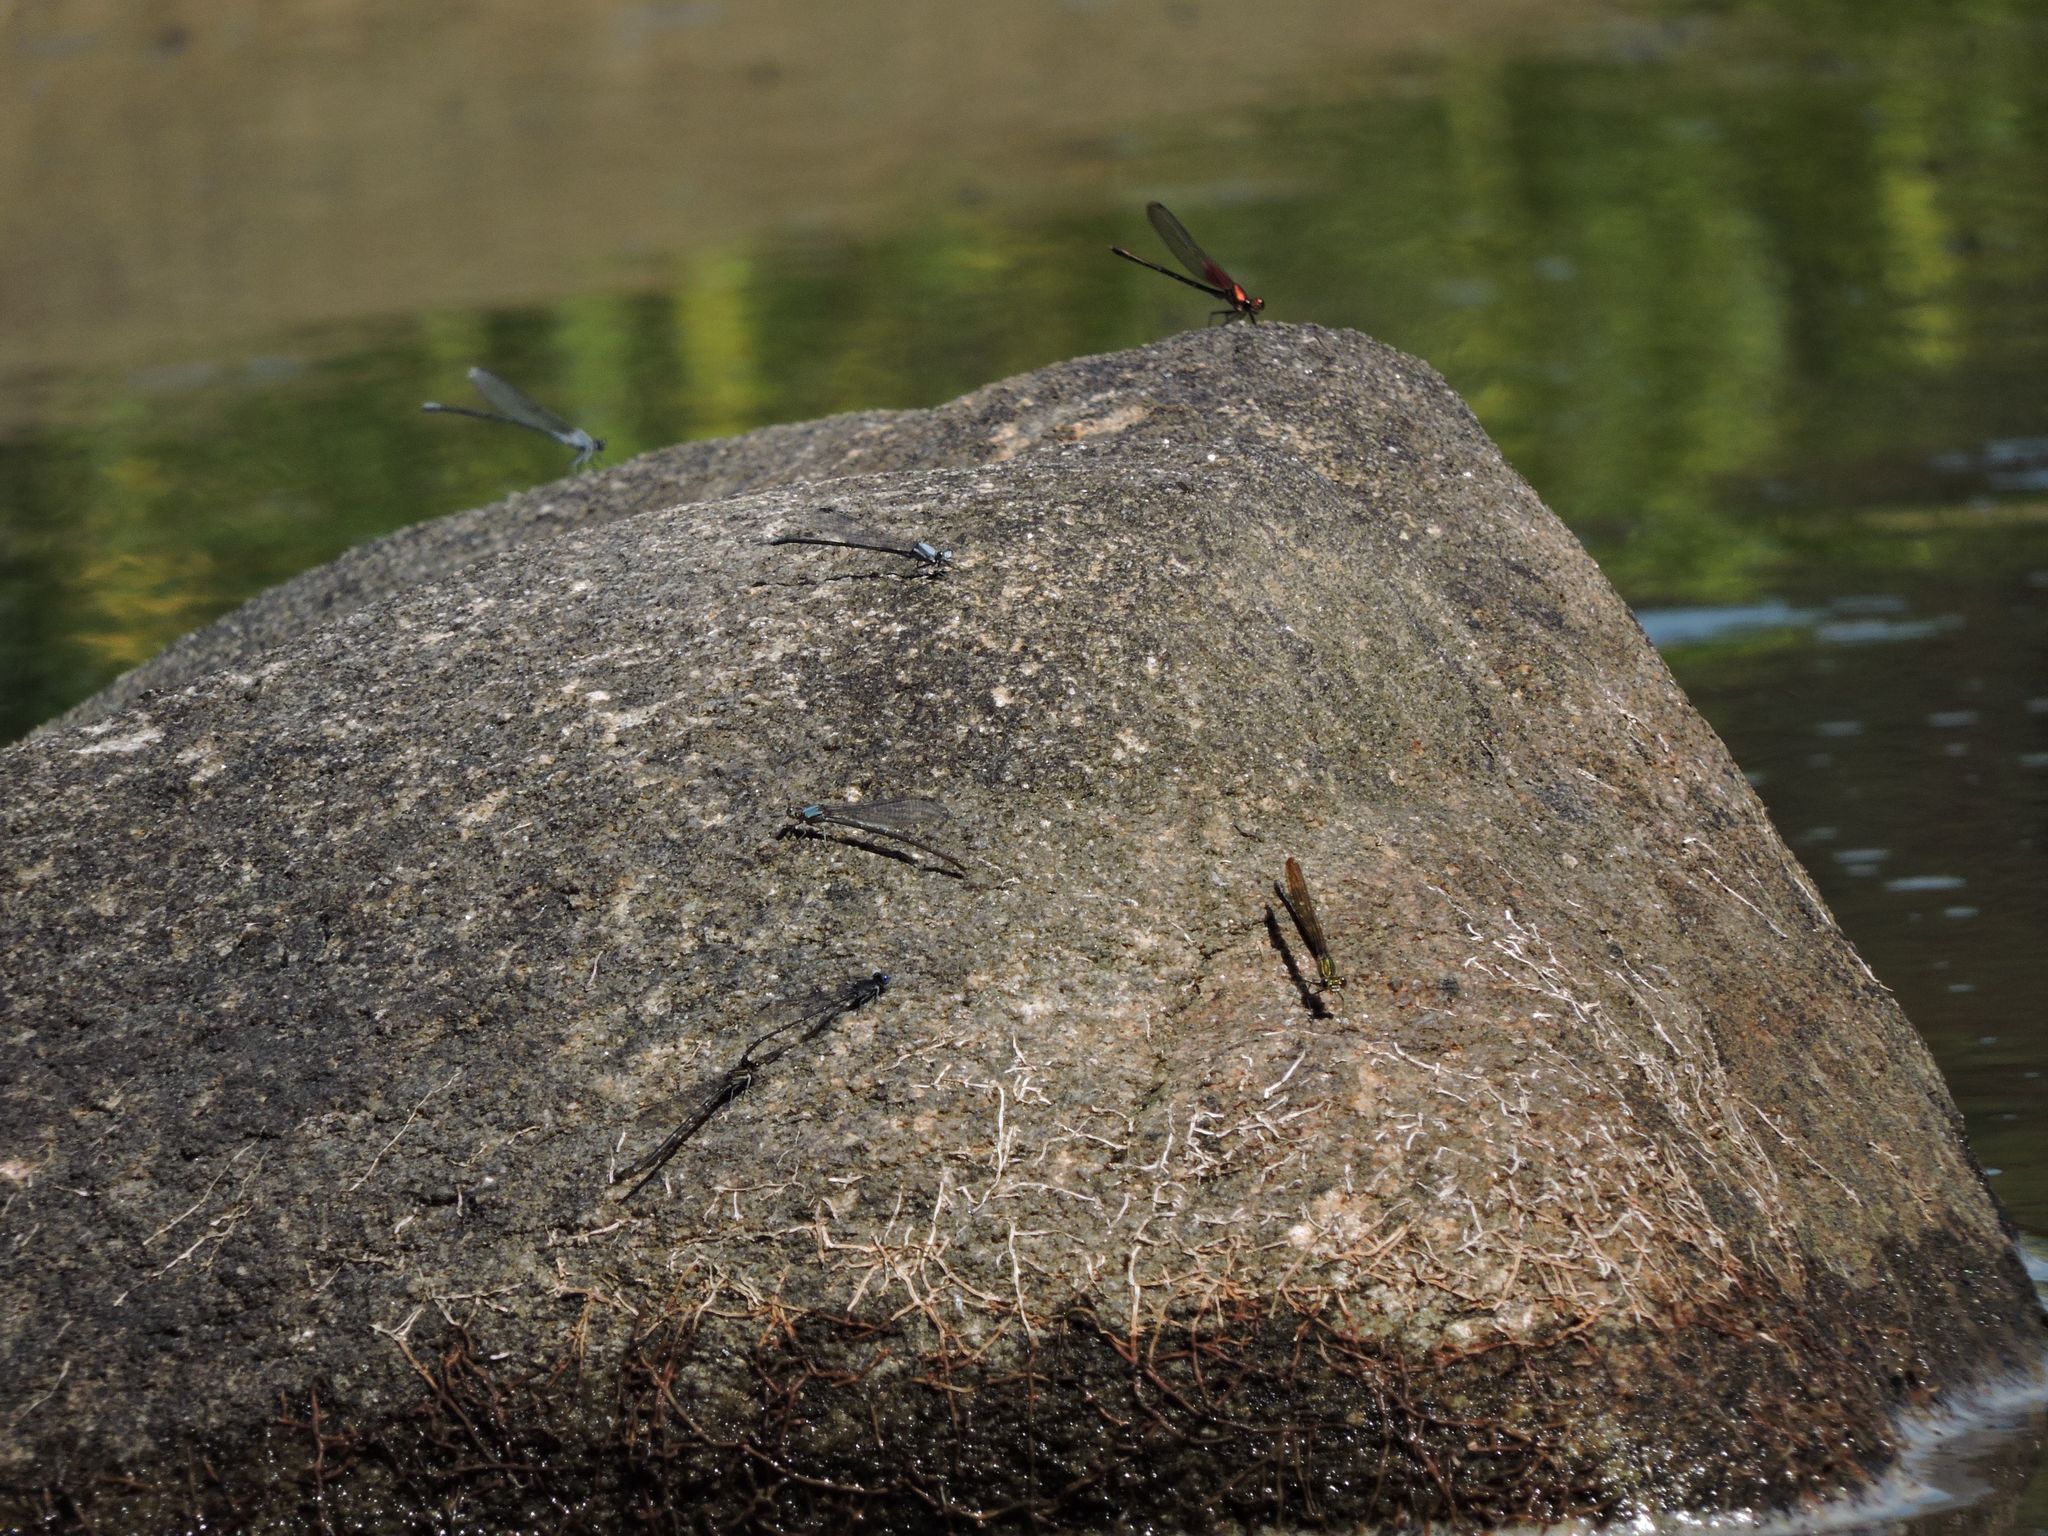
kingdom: Animalia
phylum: Arthropoda
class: Insecta
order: Odonata
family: Coenagrionidae
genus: Argia
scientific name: Argia translata
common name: Dusky dancer
